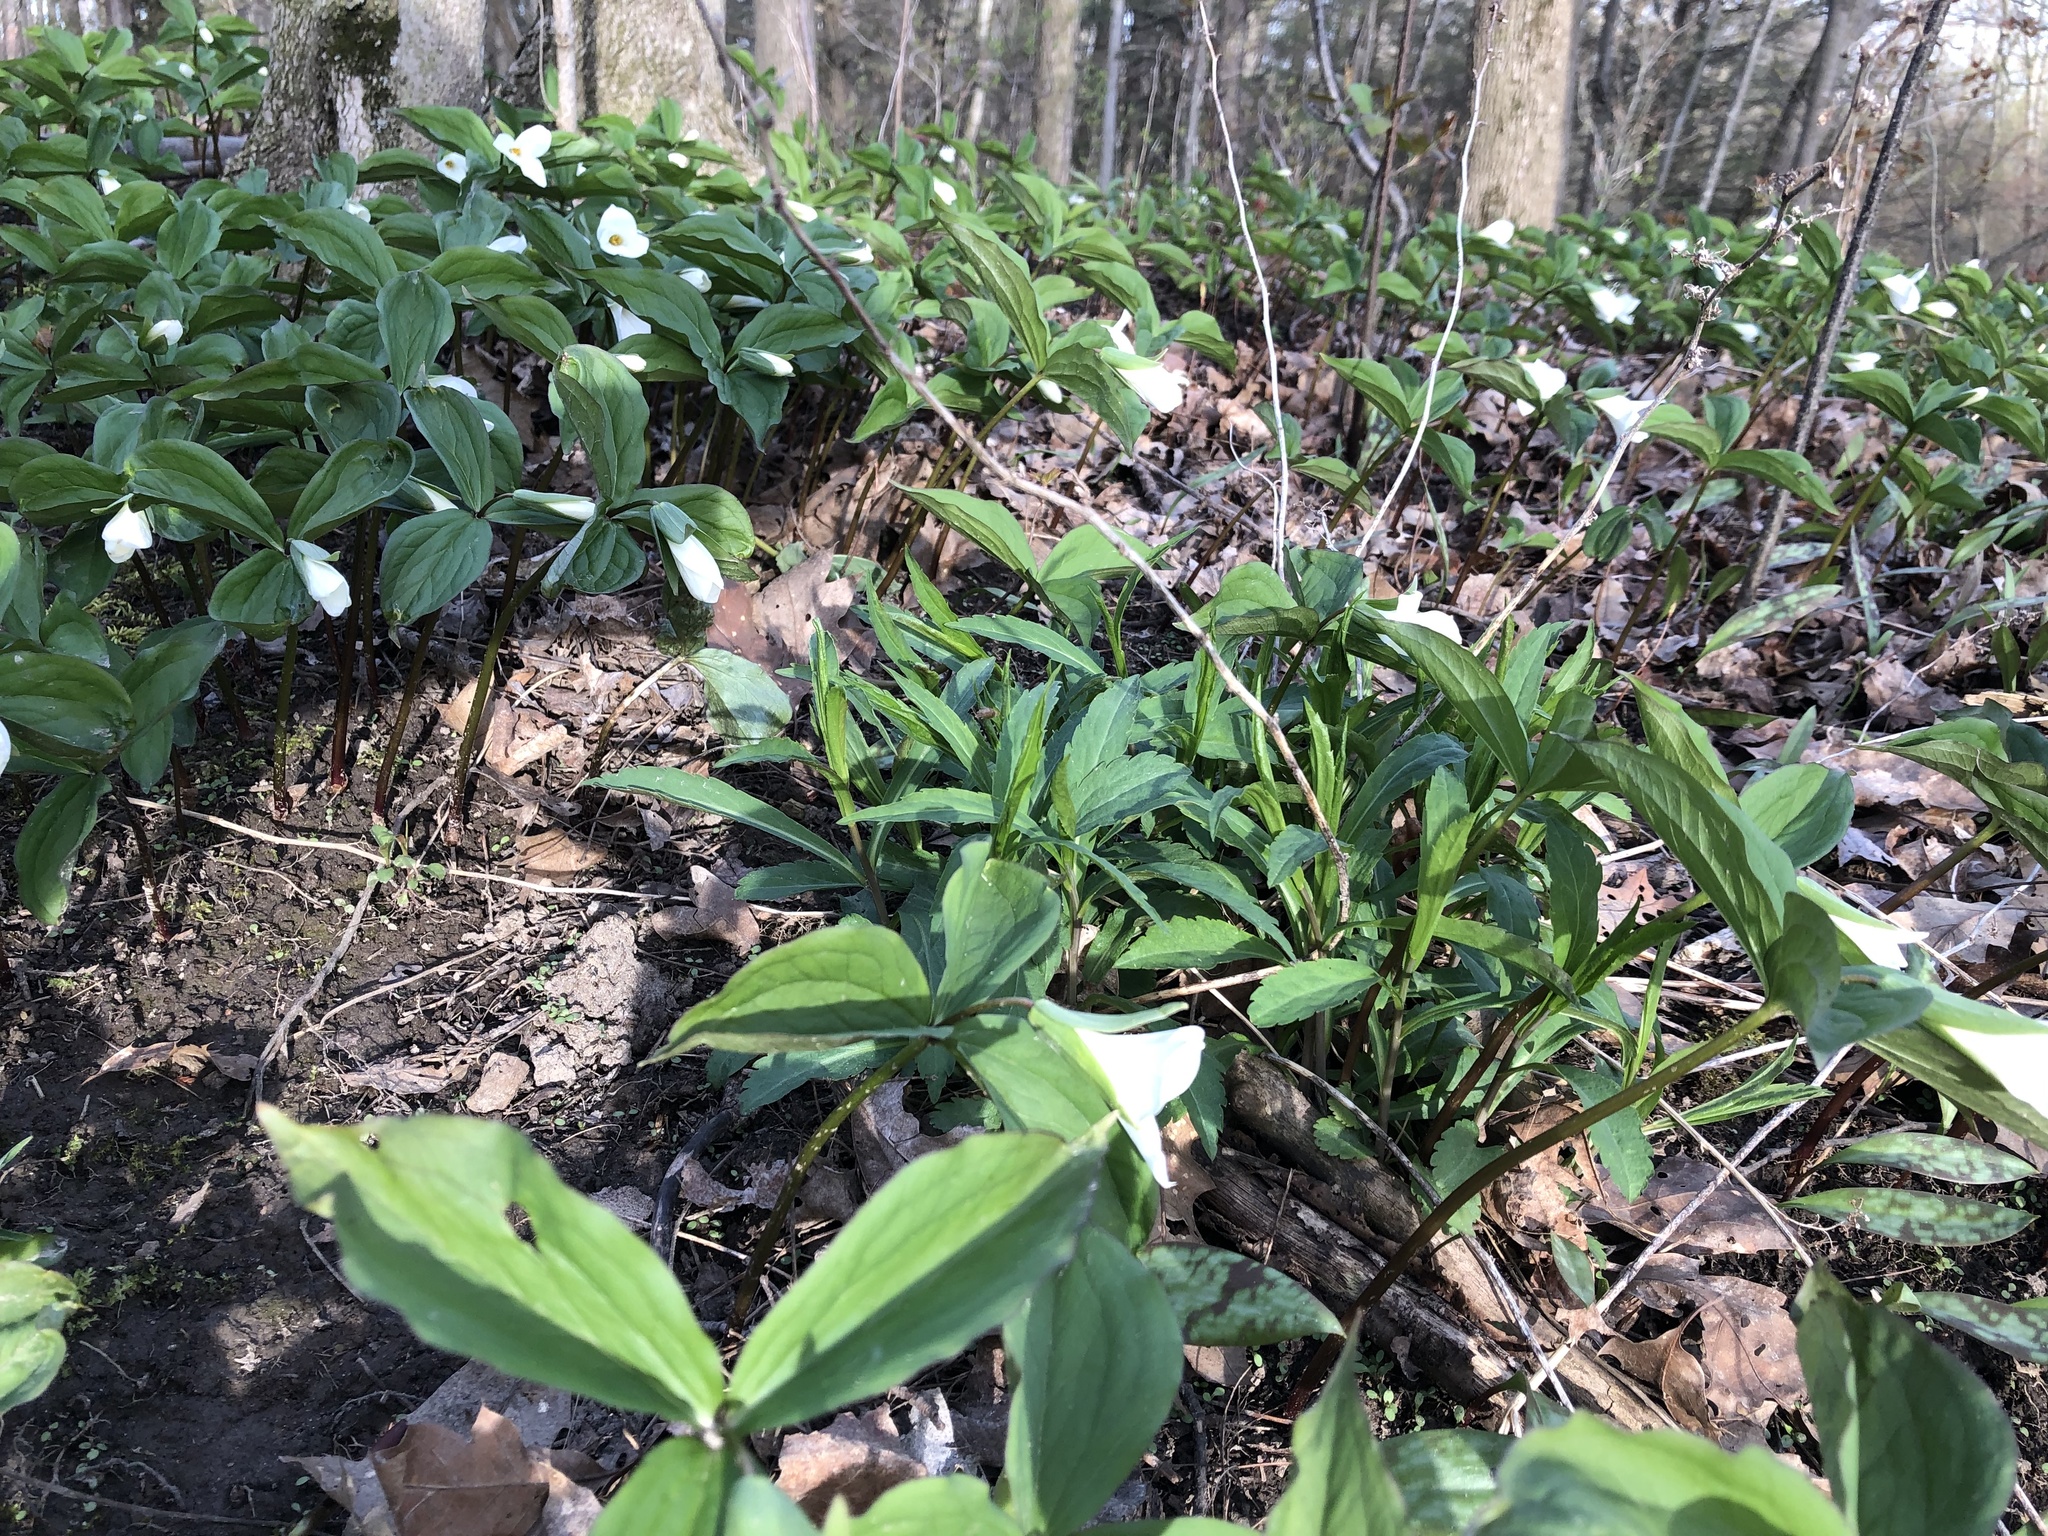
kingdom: Plantae
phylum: Tracheophyta
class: Liliopsida
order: Liliales
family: Melanthiaceae
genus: Trillium
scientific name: Trillium grandiflorum
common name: Great white trillium
